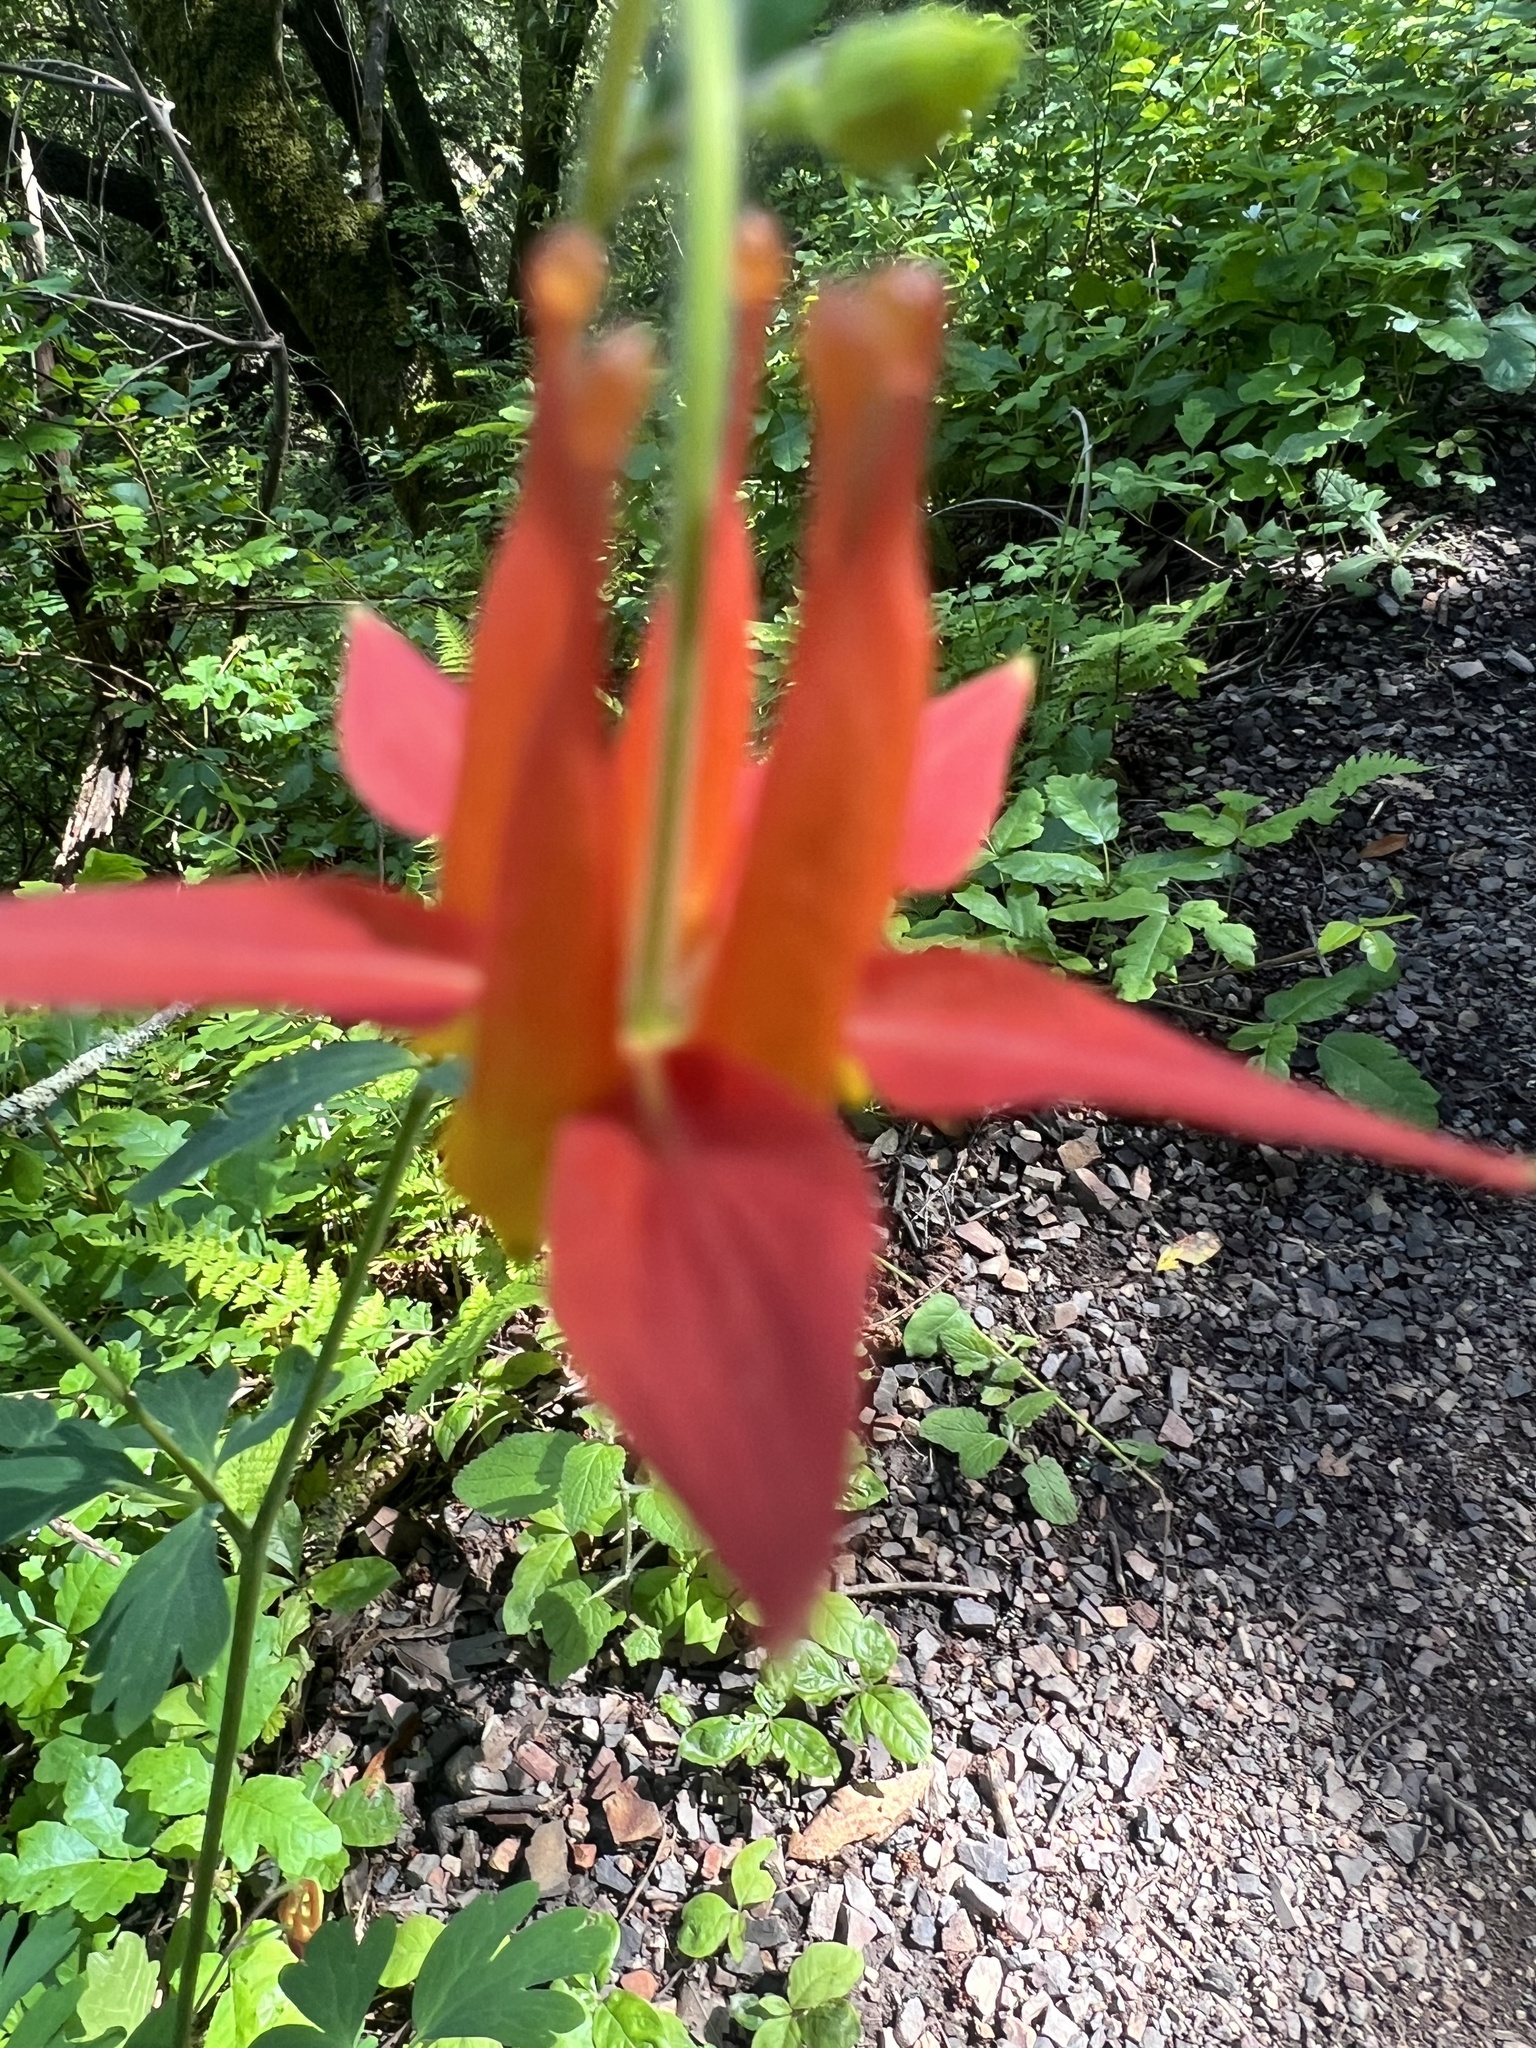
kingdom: Plantae
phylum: Tracheophyta
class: Magnoliopsida
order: Ranunculales
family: Ranunculaceae
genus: Aquilegia
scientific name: Aquilegia formosa
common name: Sitka columbine
